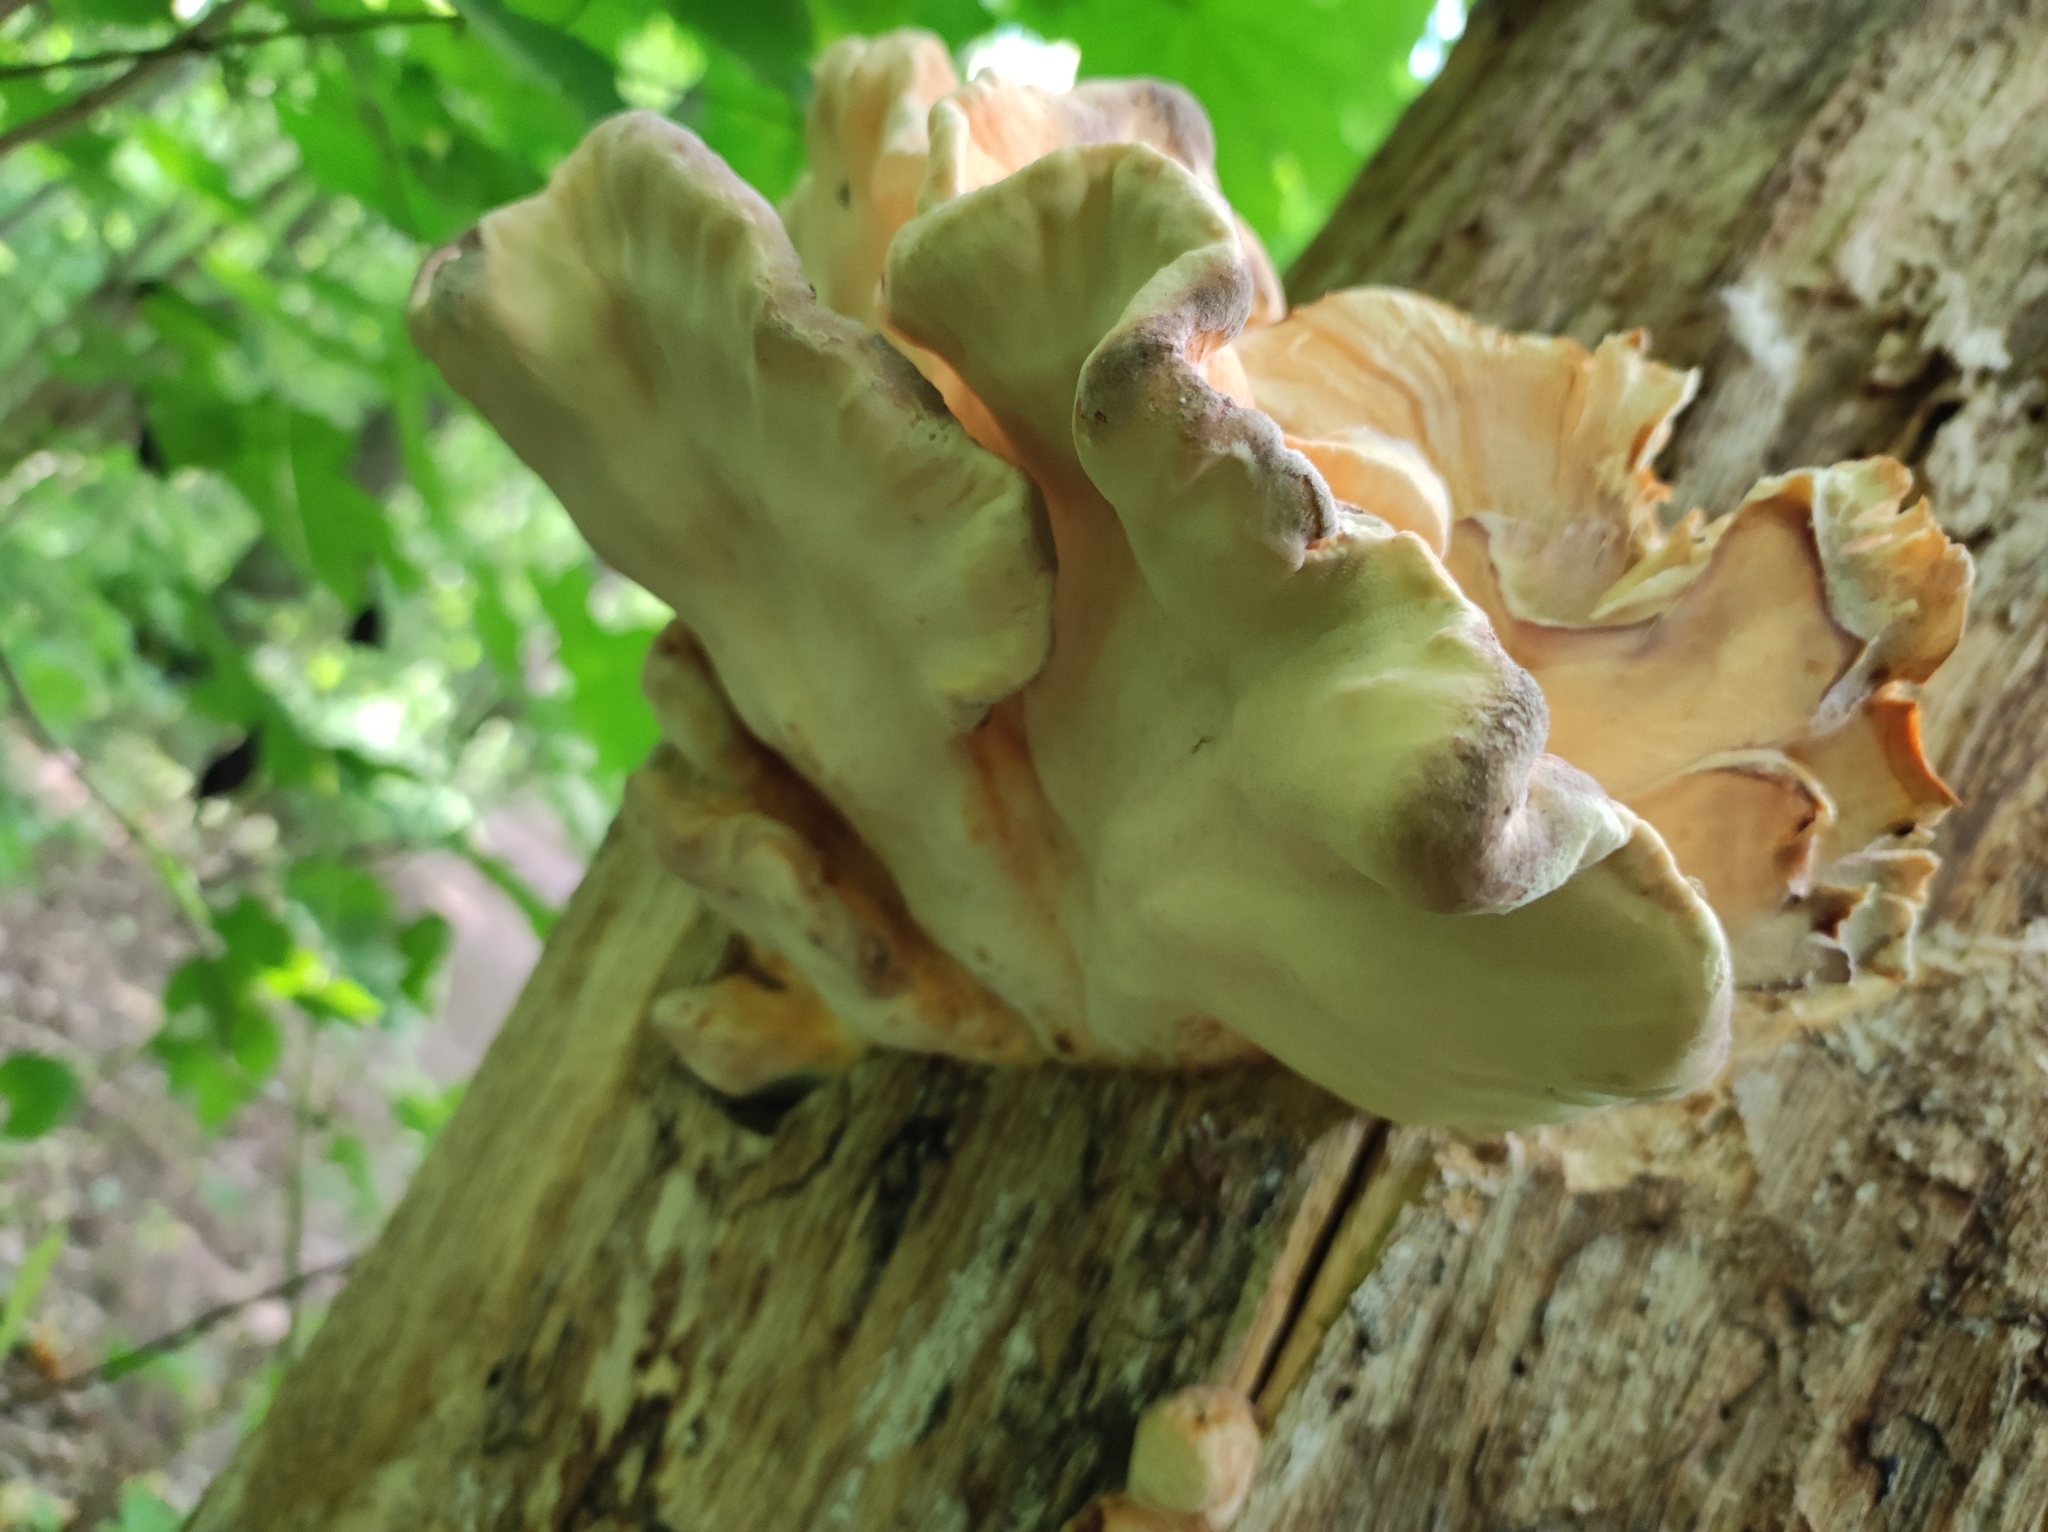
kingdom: Fungi
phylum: Basidiomycota
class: Agaricomycetes
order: Polyporales
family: Laetiporaceae
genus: Laetiporus
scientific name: Laetiporus sulphureus
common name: Chicken of the woods
